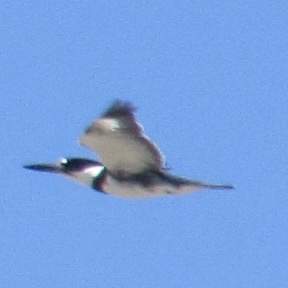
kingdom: Animalia
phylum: Chordata
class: Aves
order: Coraciiformes
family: Alcedinidae
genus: Megaceryle
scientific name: Megaceryle alcyon
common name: Belted kingfisher
